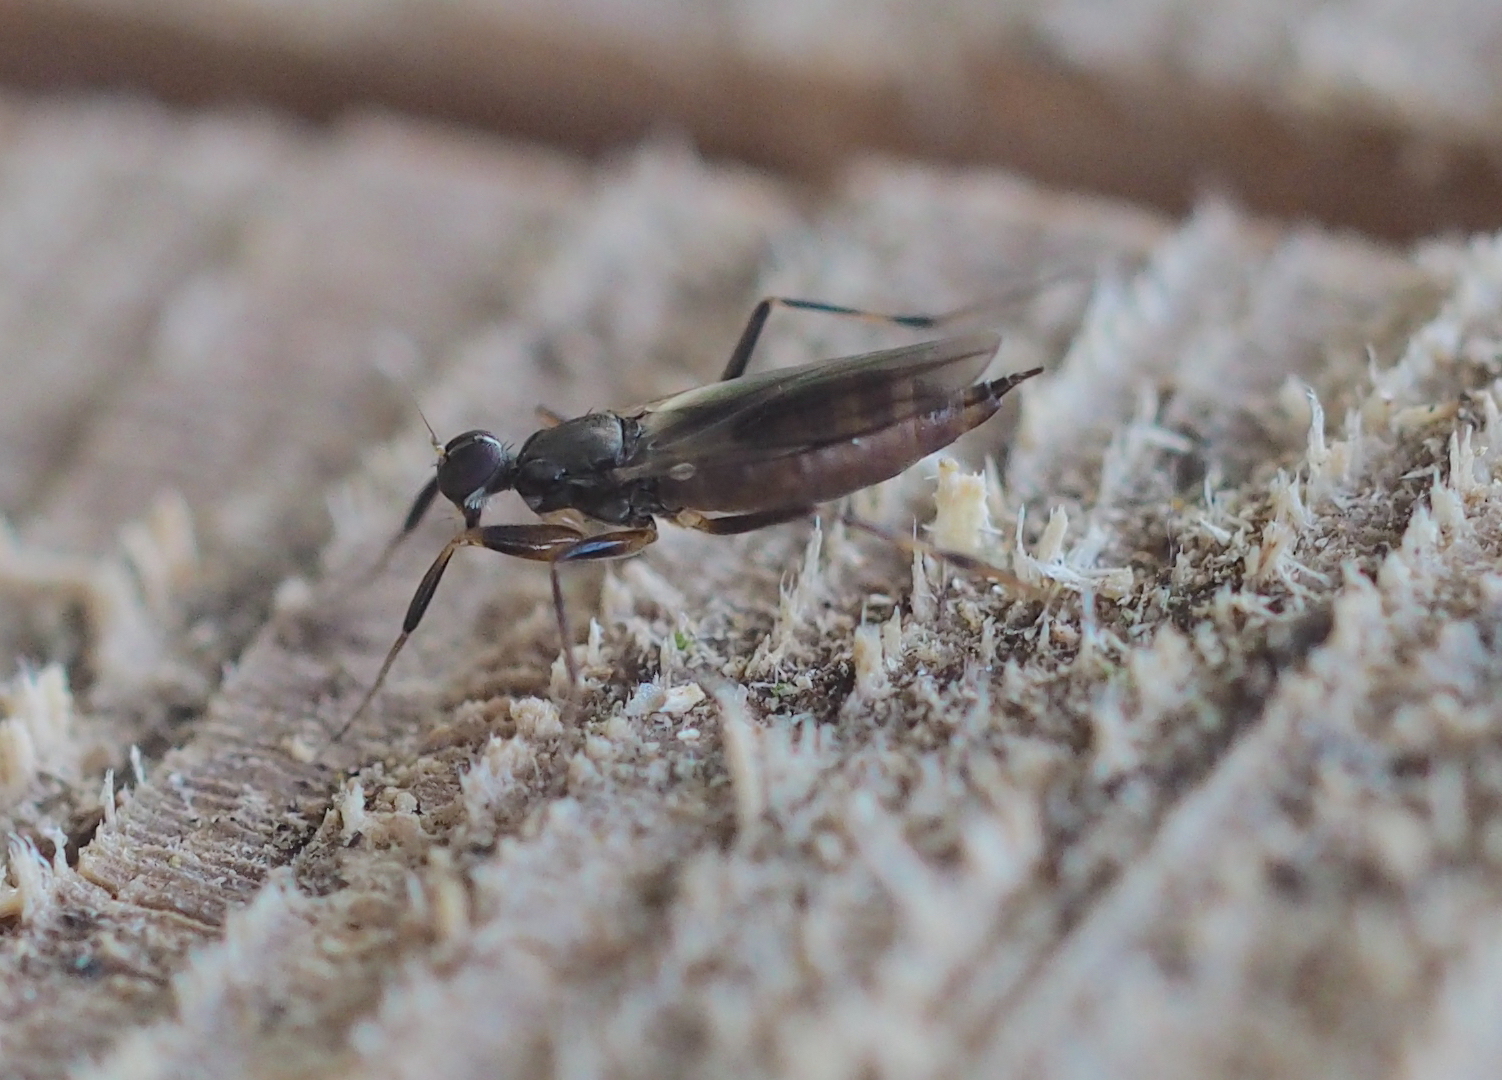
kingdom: Animalia
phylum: Arthropoda
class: Insecta
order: Diptera
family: Hybotidae
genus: Tachypeza
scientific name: Tachypeza nubila
